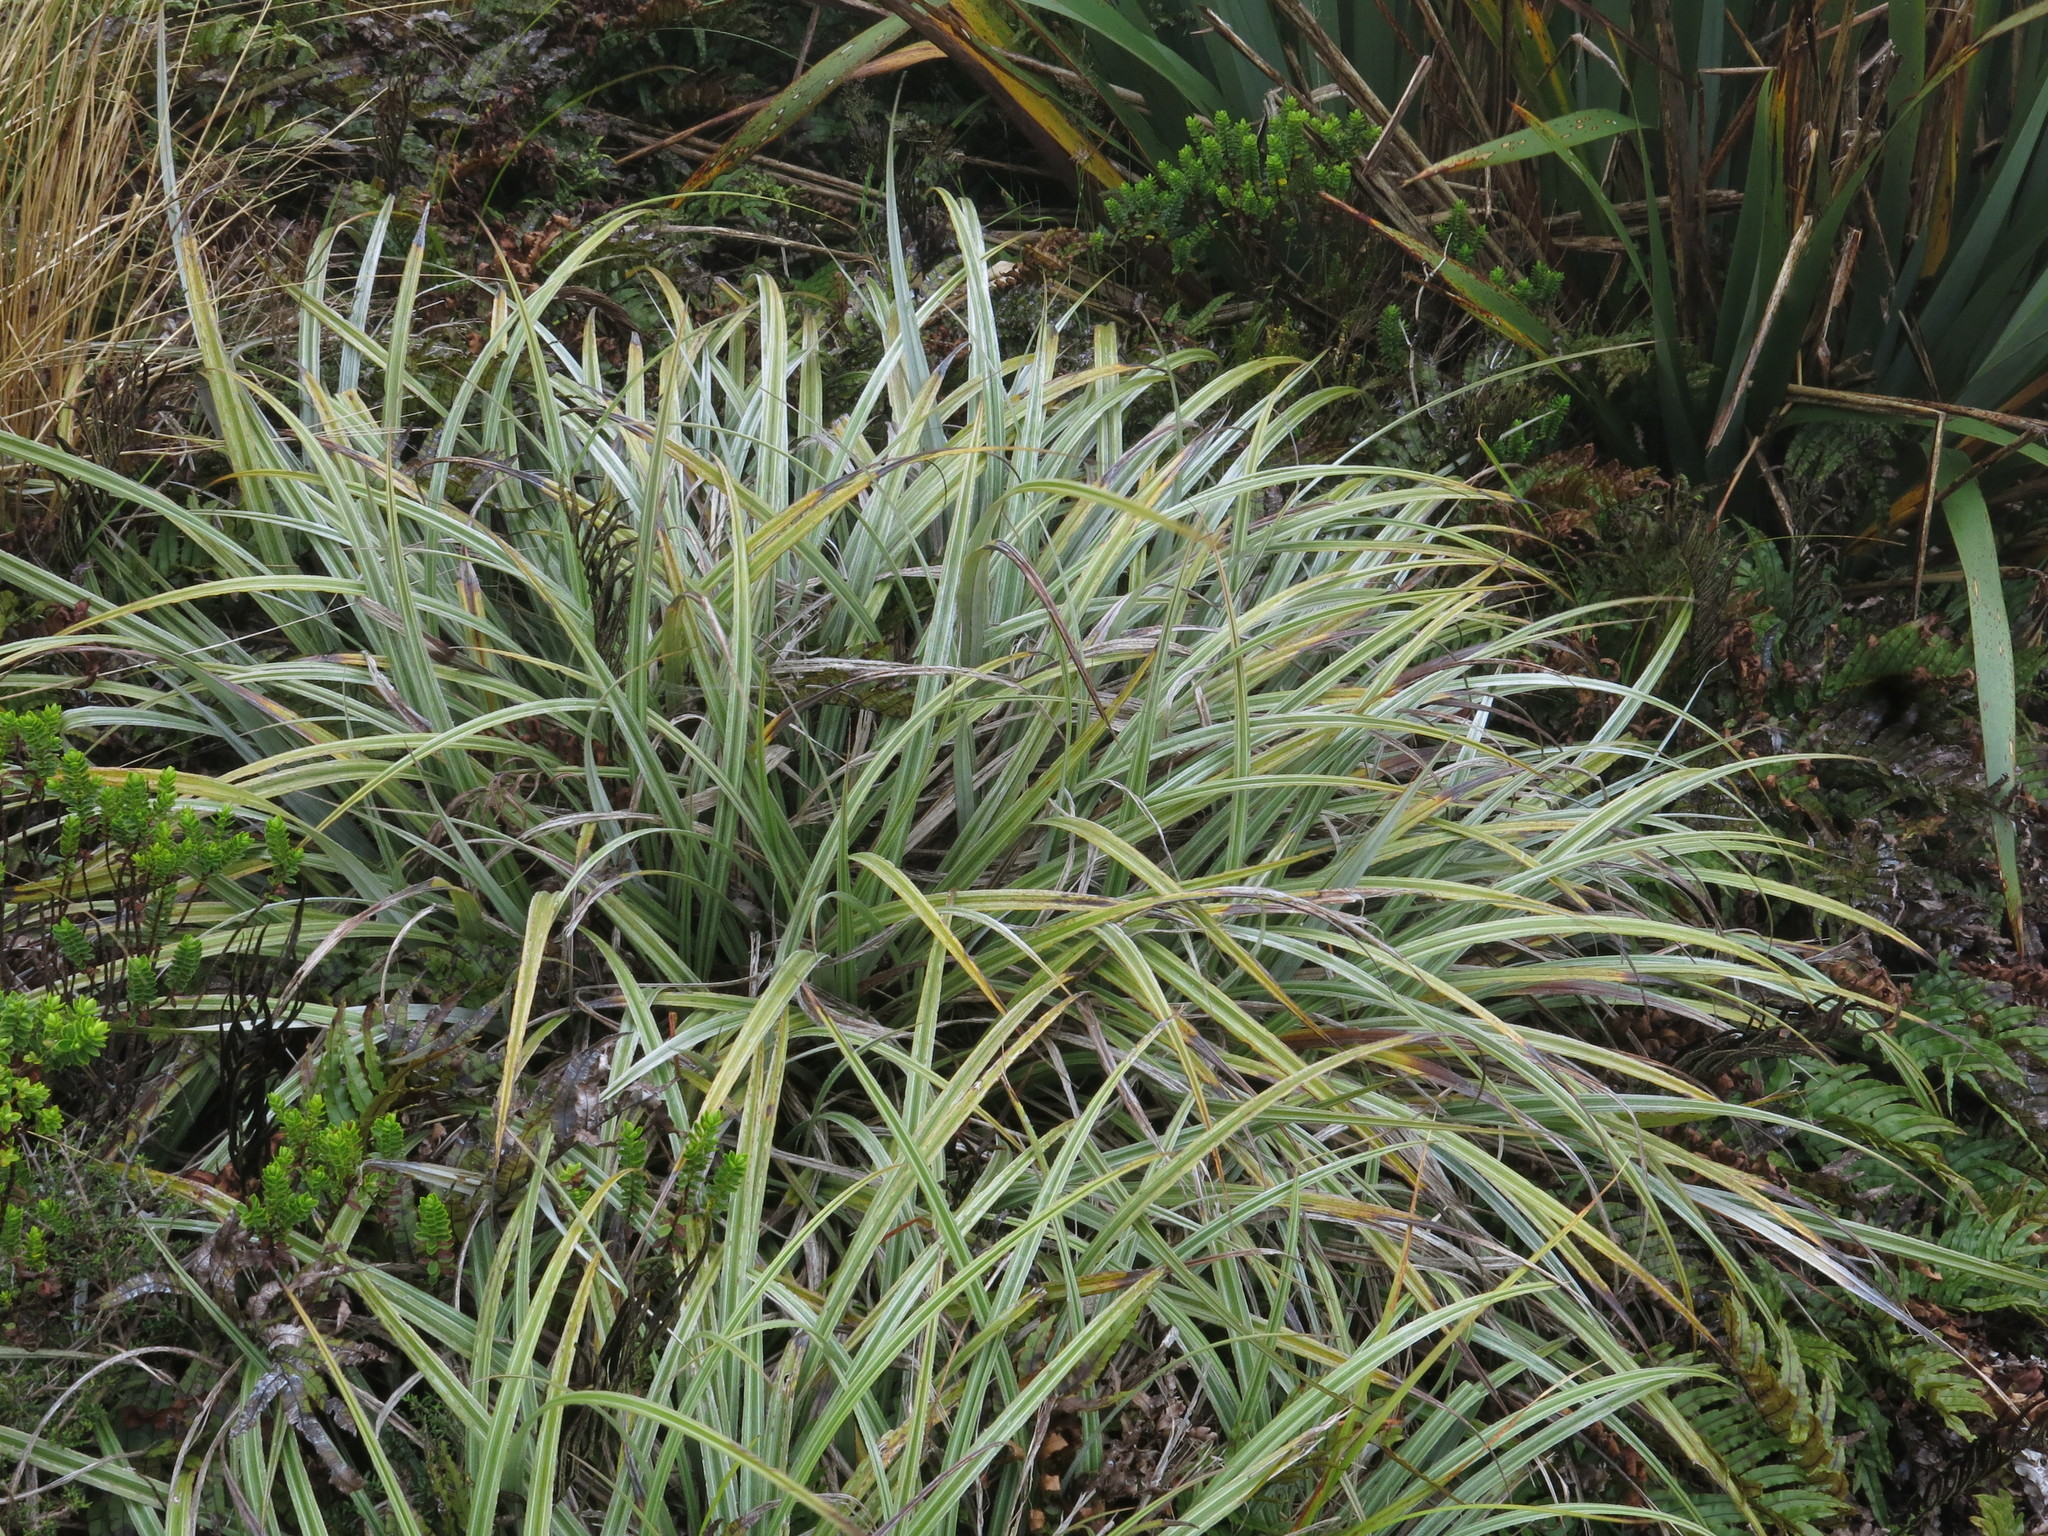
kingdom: Plantae
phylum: Tracheophyta
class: Liliopsida
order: Asparagales
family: Asteliaceae
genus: Astelia
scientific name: Astelia nervosa
